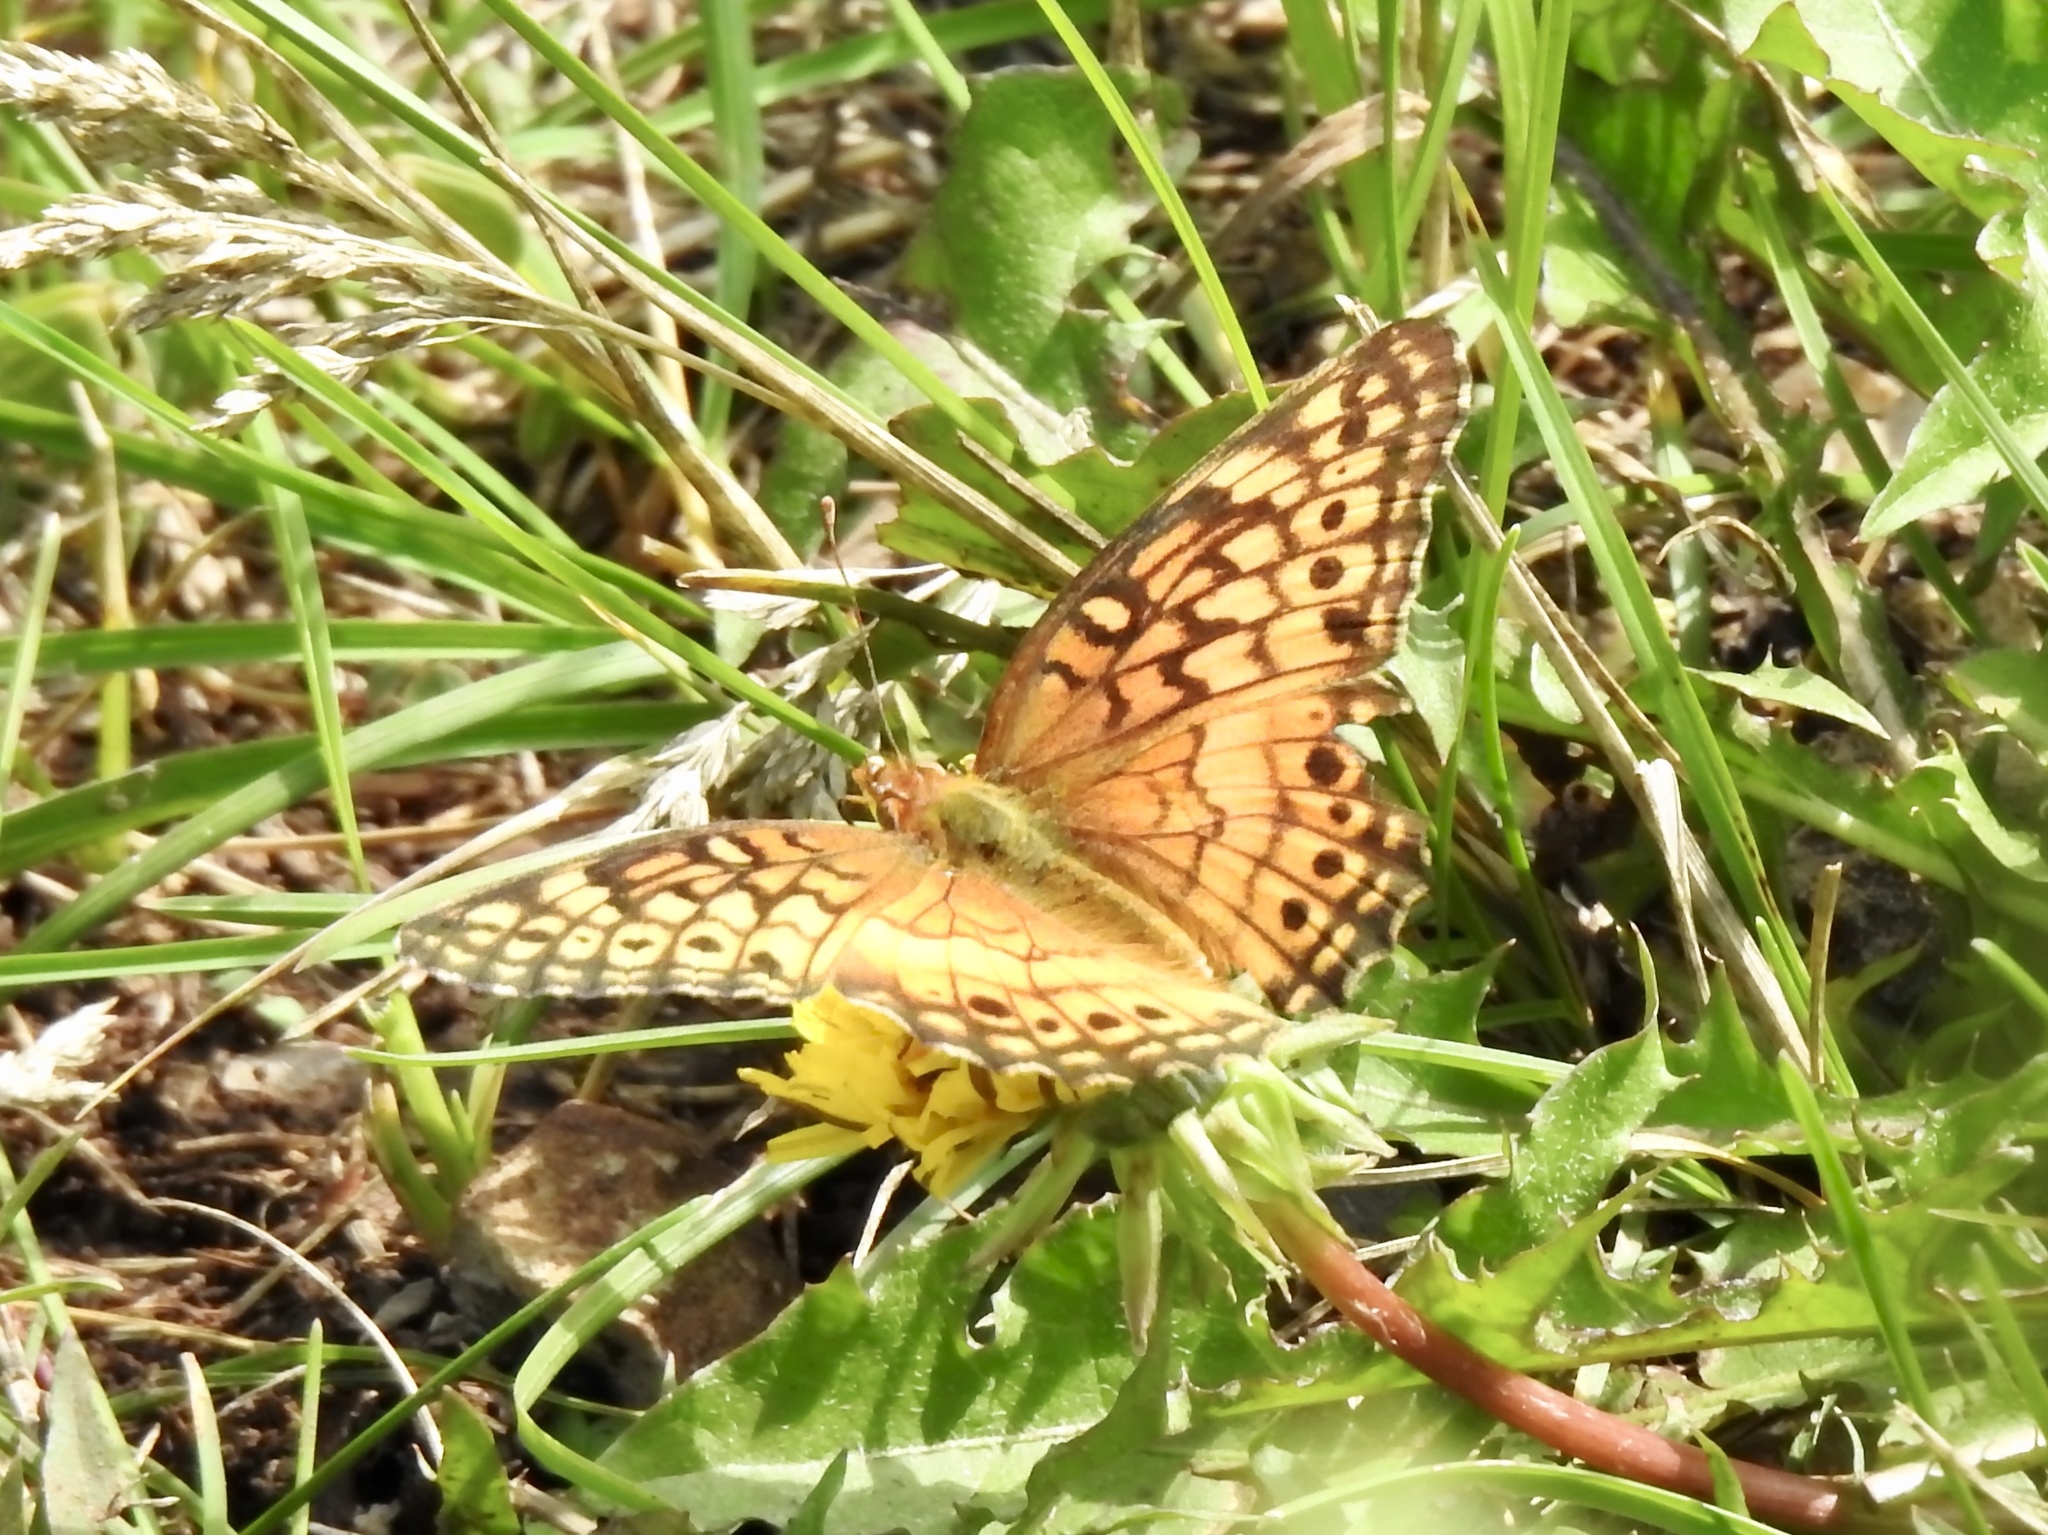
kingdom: Animalia
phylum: Arthropoda
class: Insecta
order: Lepidoptera
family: Nymphalidae
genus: Euptoieta
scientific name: Euptoieta claudia
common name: Variegated fritillary
